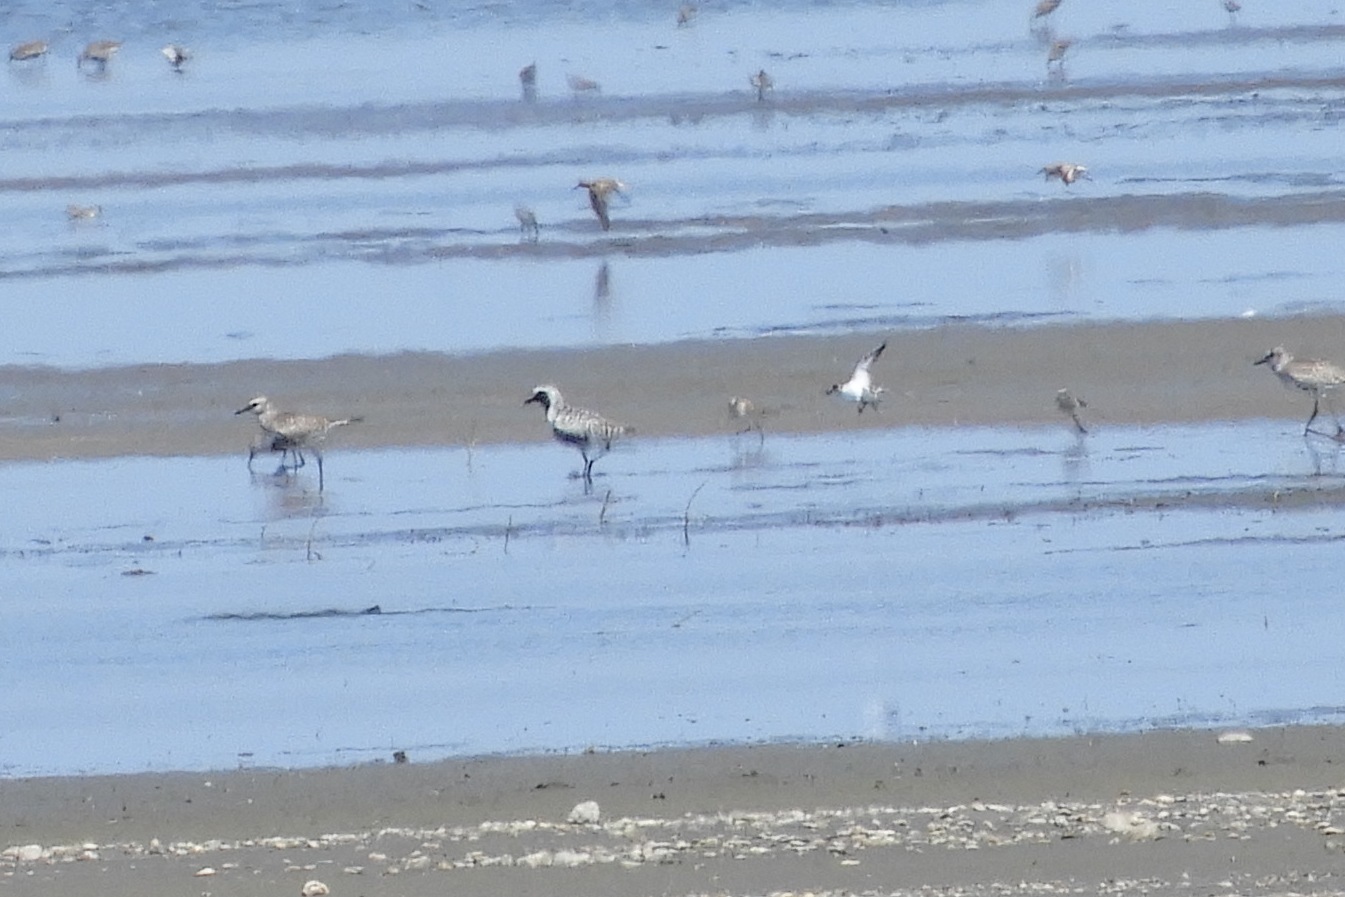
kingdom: Animalia
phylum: Chordata
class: Aves
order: Charadriiformes
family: Charadriidae
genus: Pluvialis
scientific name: Pluvialis squatarola
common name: Grey plover
